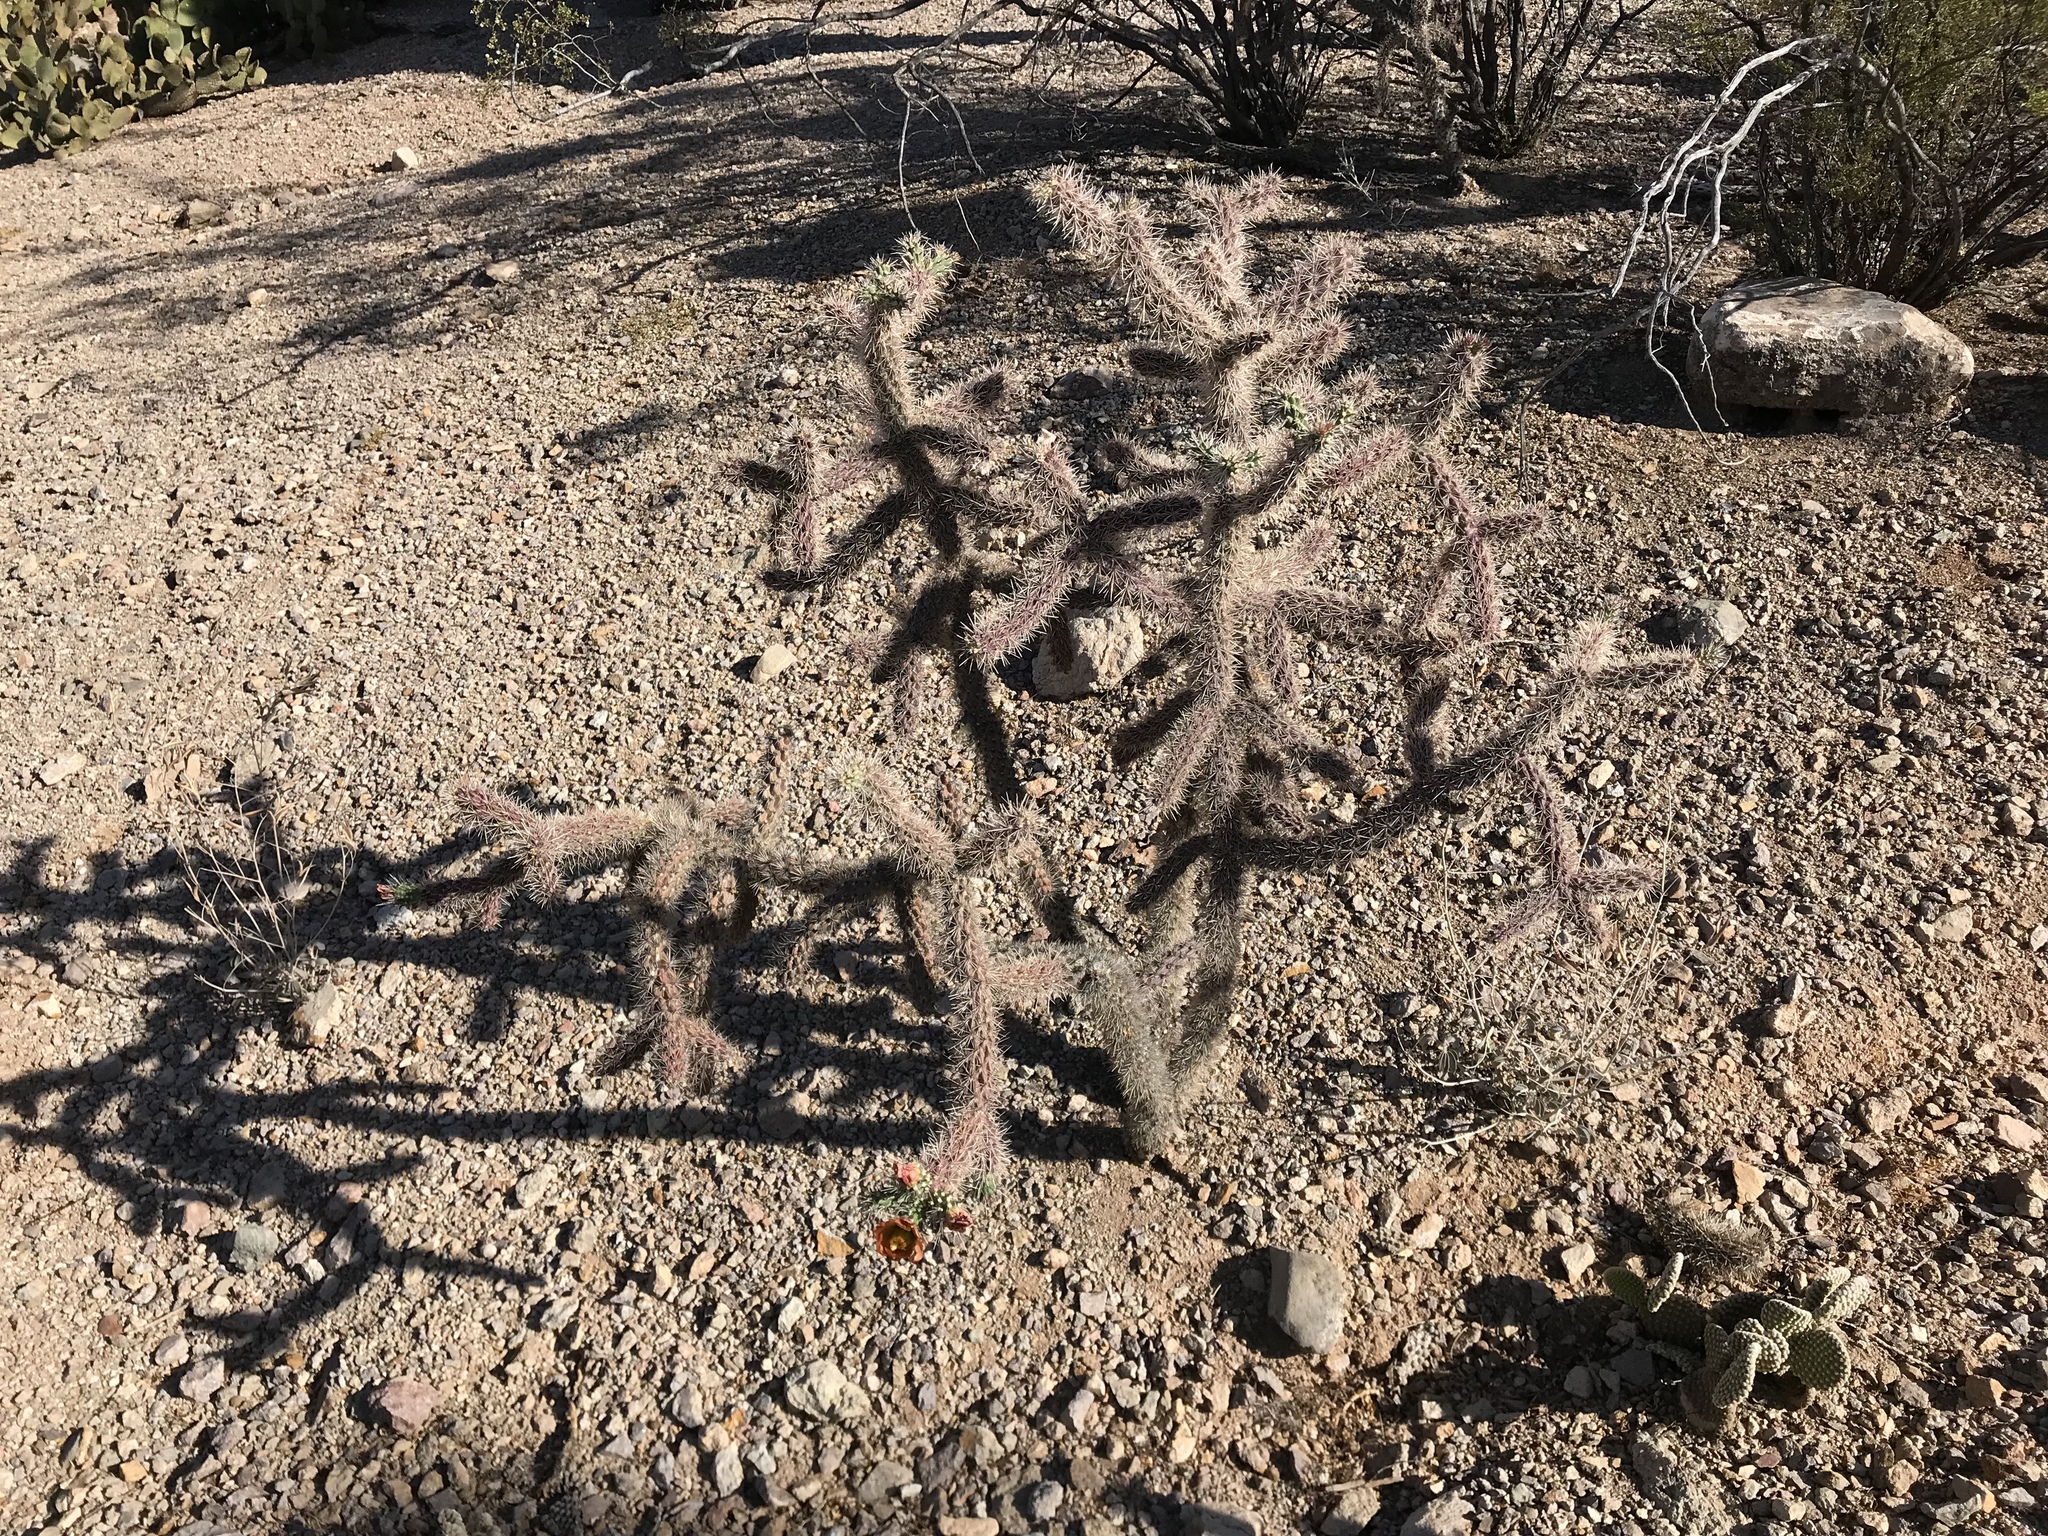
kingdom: Plantae
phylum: Tracheophyta
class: Magnoliopsida
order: Caryophyllales
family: Cactaceae
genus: Cylindropuntia
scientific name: Cylindropuntia imbricata
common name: Candelabrum cactus
